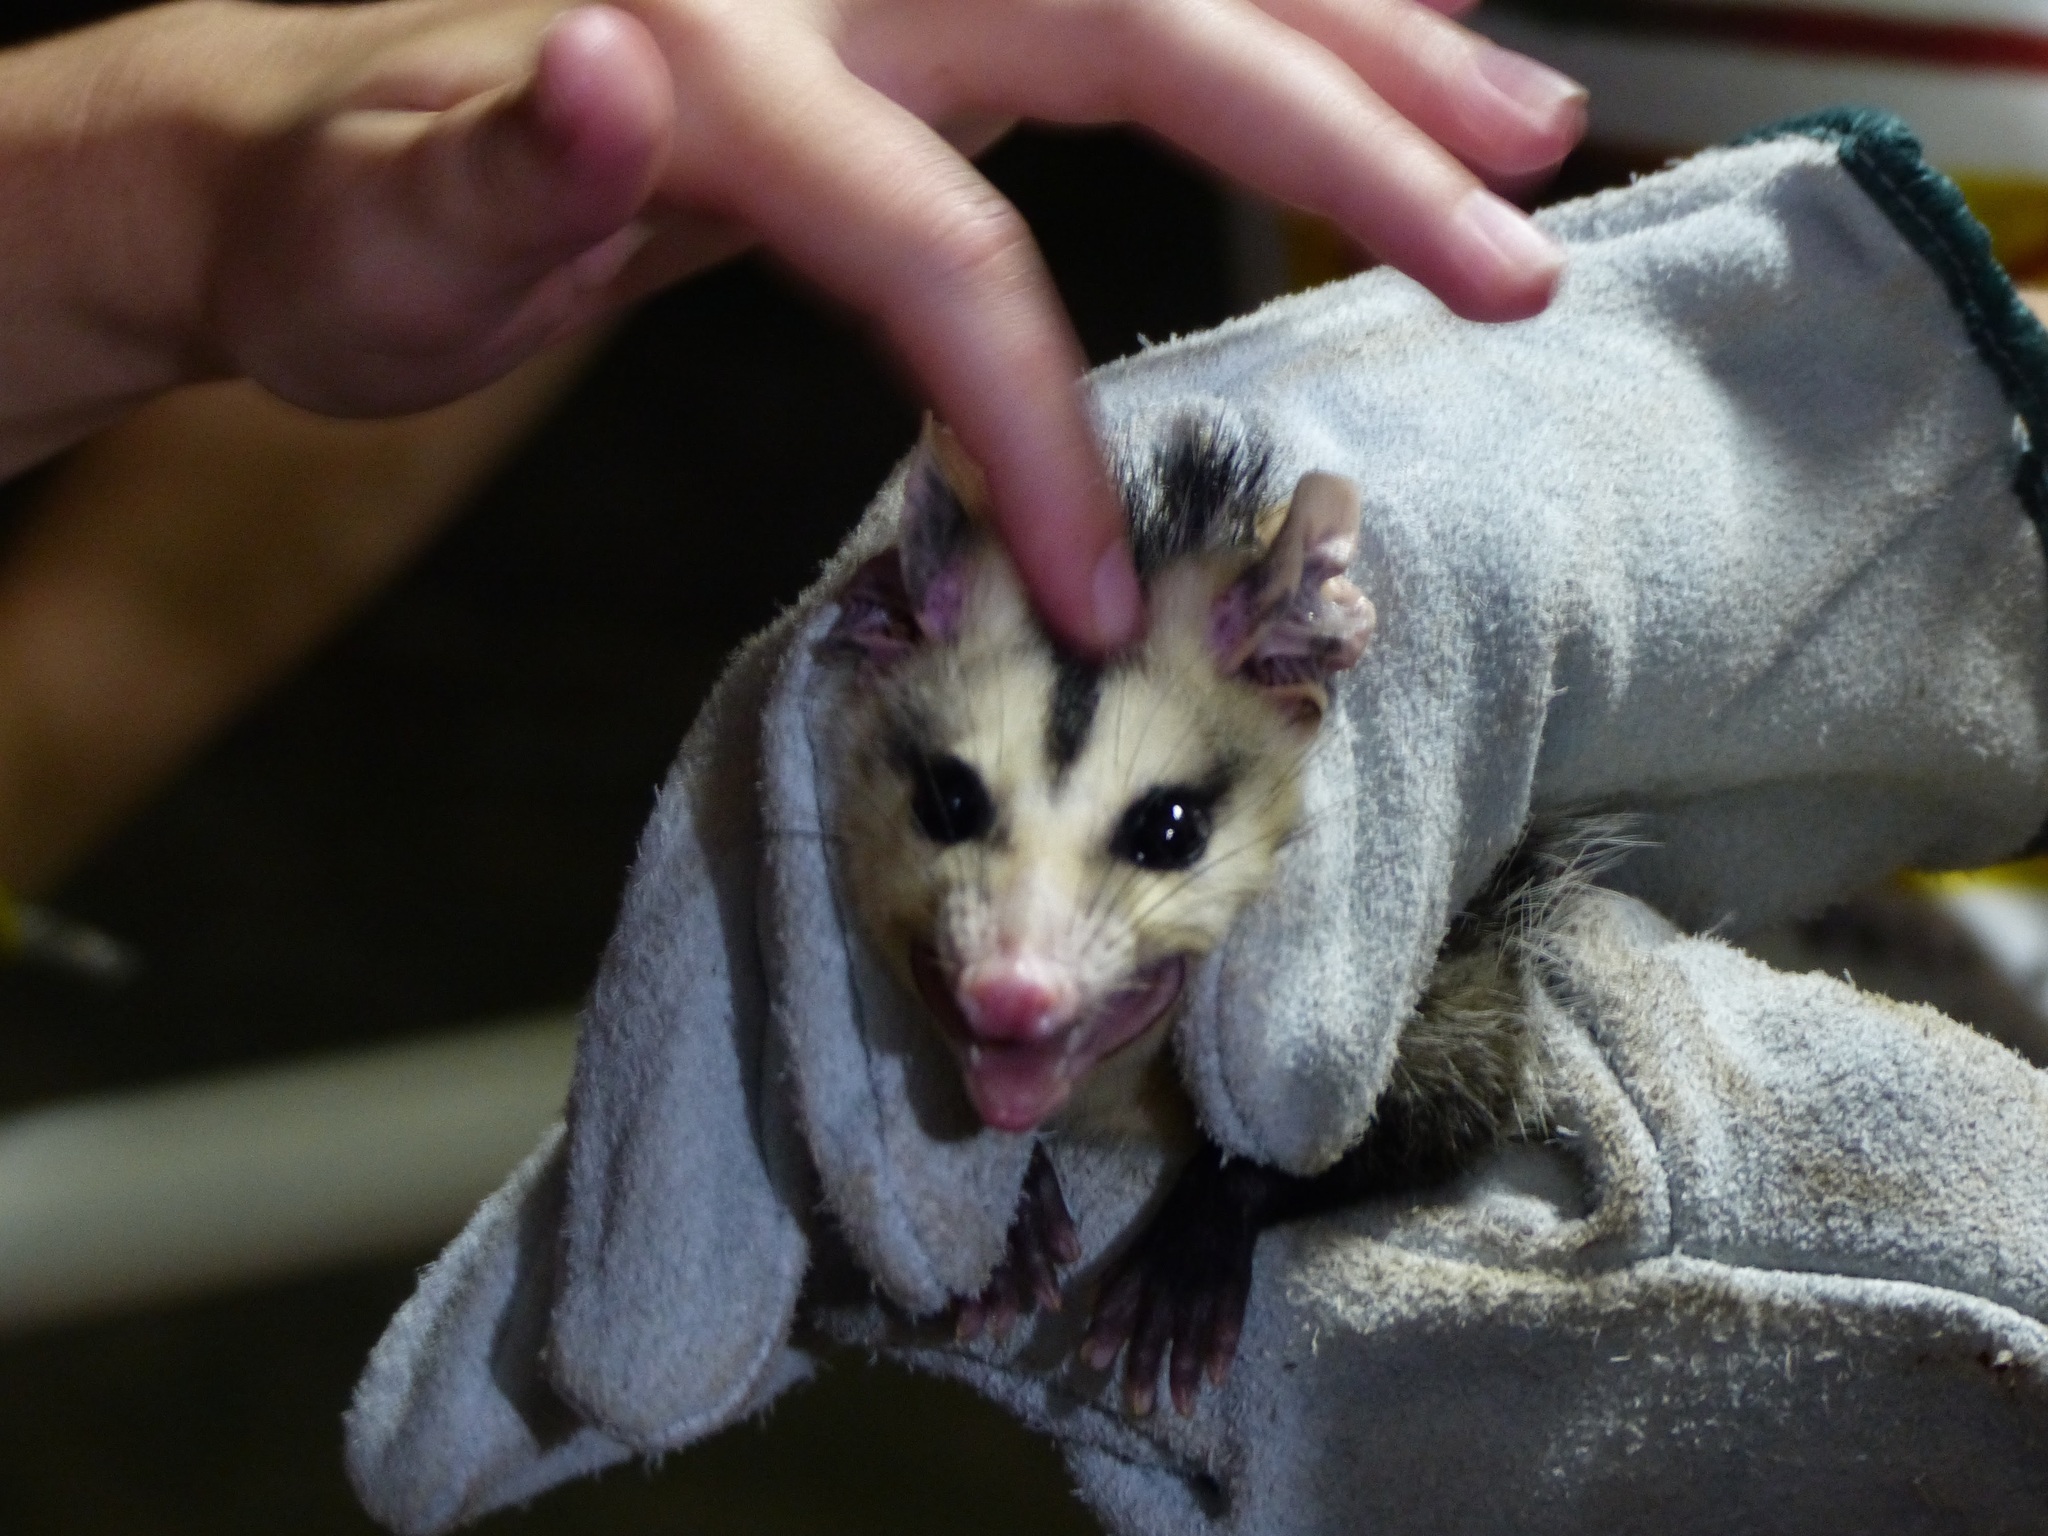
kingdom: Animalia
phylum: Chordata
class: Mammalia
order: Didelphimorphia
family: Didelphidae
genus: Didelphis
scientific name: Didelphis albiventris
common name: White-eared opossum
